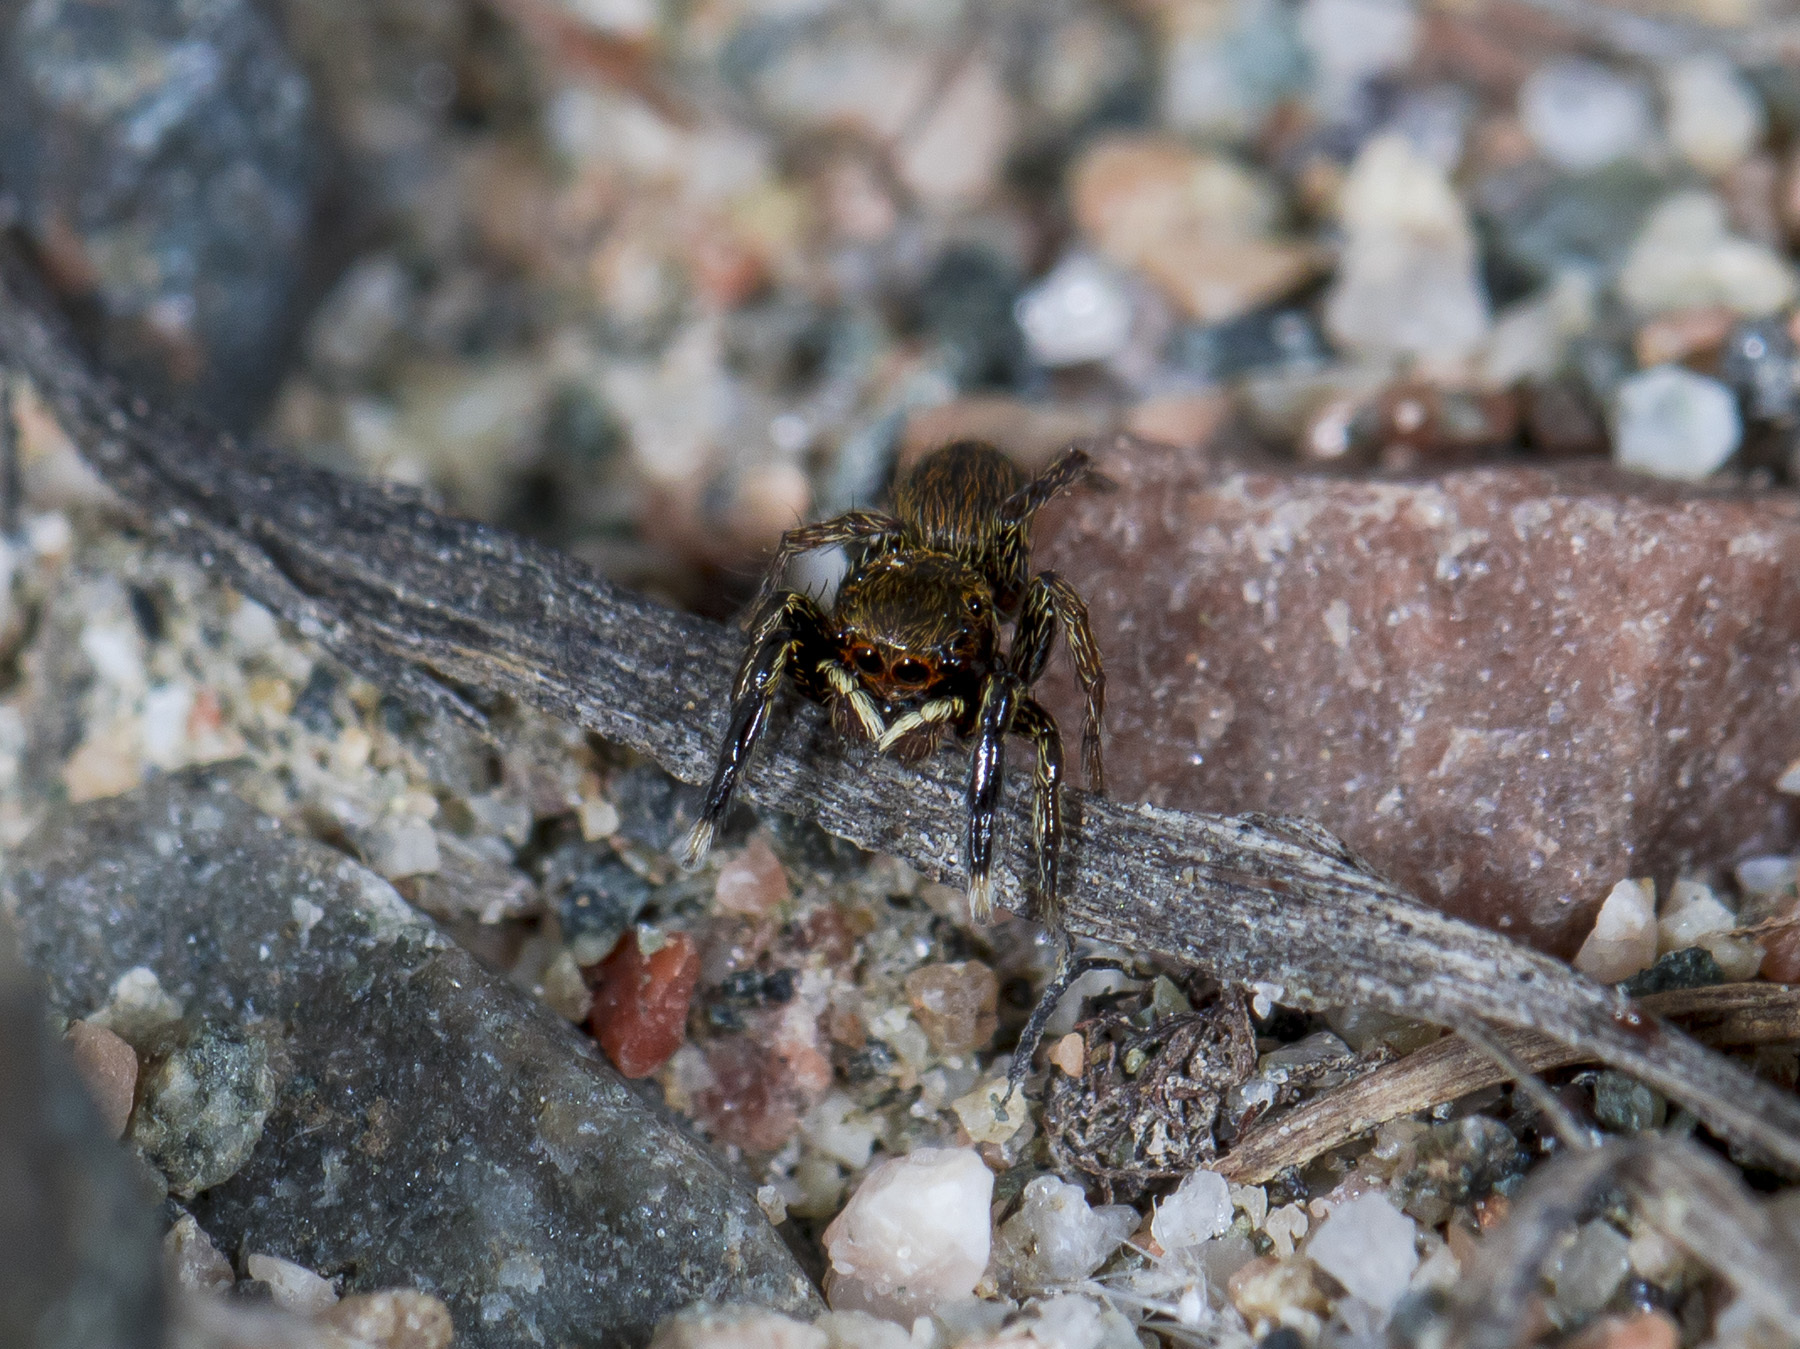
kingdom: Animalia
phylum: Arthropoda
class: Arachnida
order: Araneae
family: Salticidae
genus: Euophrys
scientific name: Euophrys frontalis
